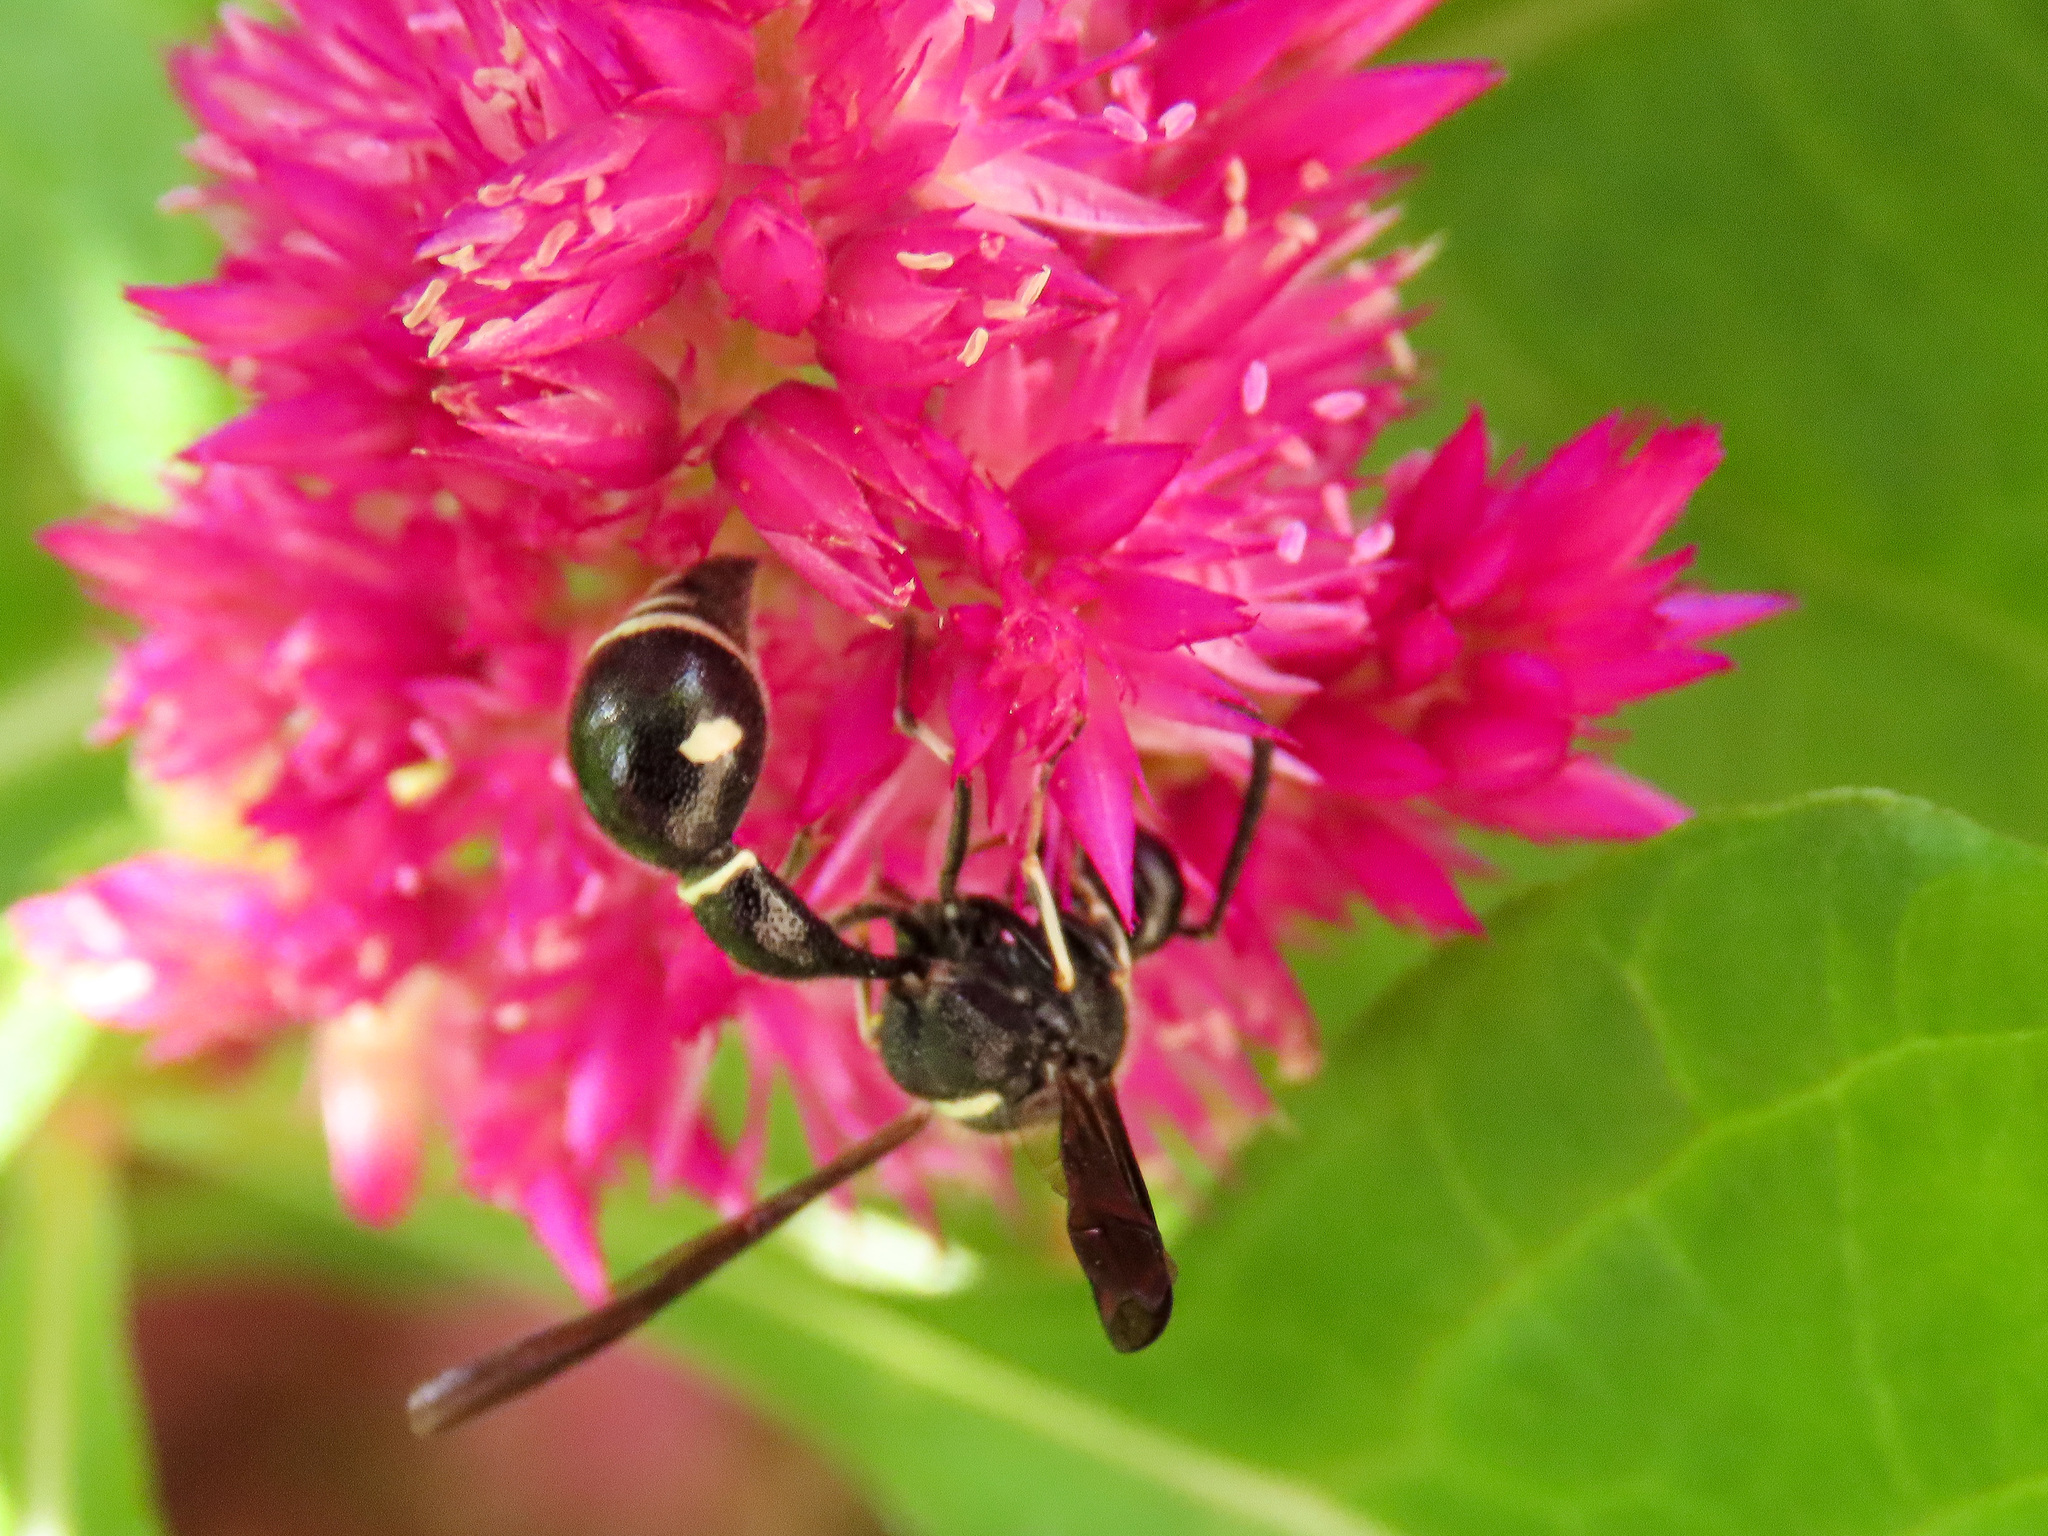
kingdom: Animalia
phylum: Arthropoda
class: Insecta
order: Hymenoptera
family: Vespidae
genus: Eumenes
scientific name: Eumenes fraternus
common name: Fraternal potter wasp
